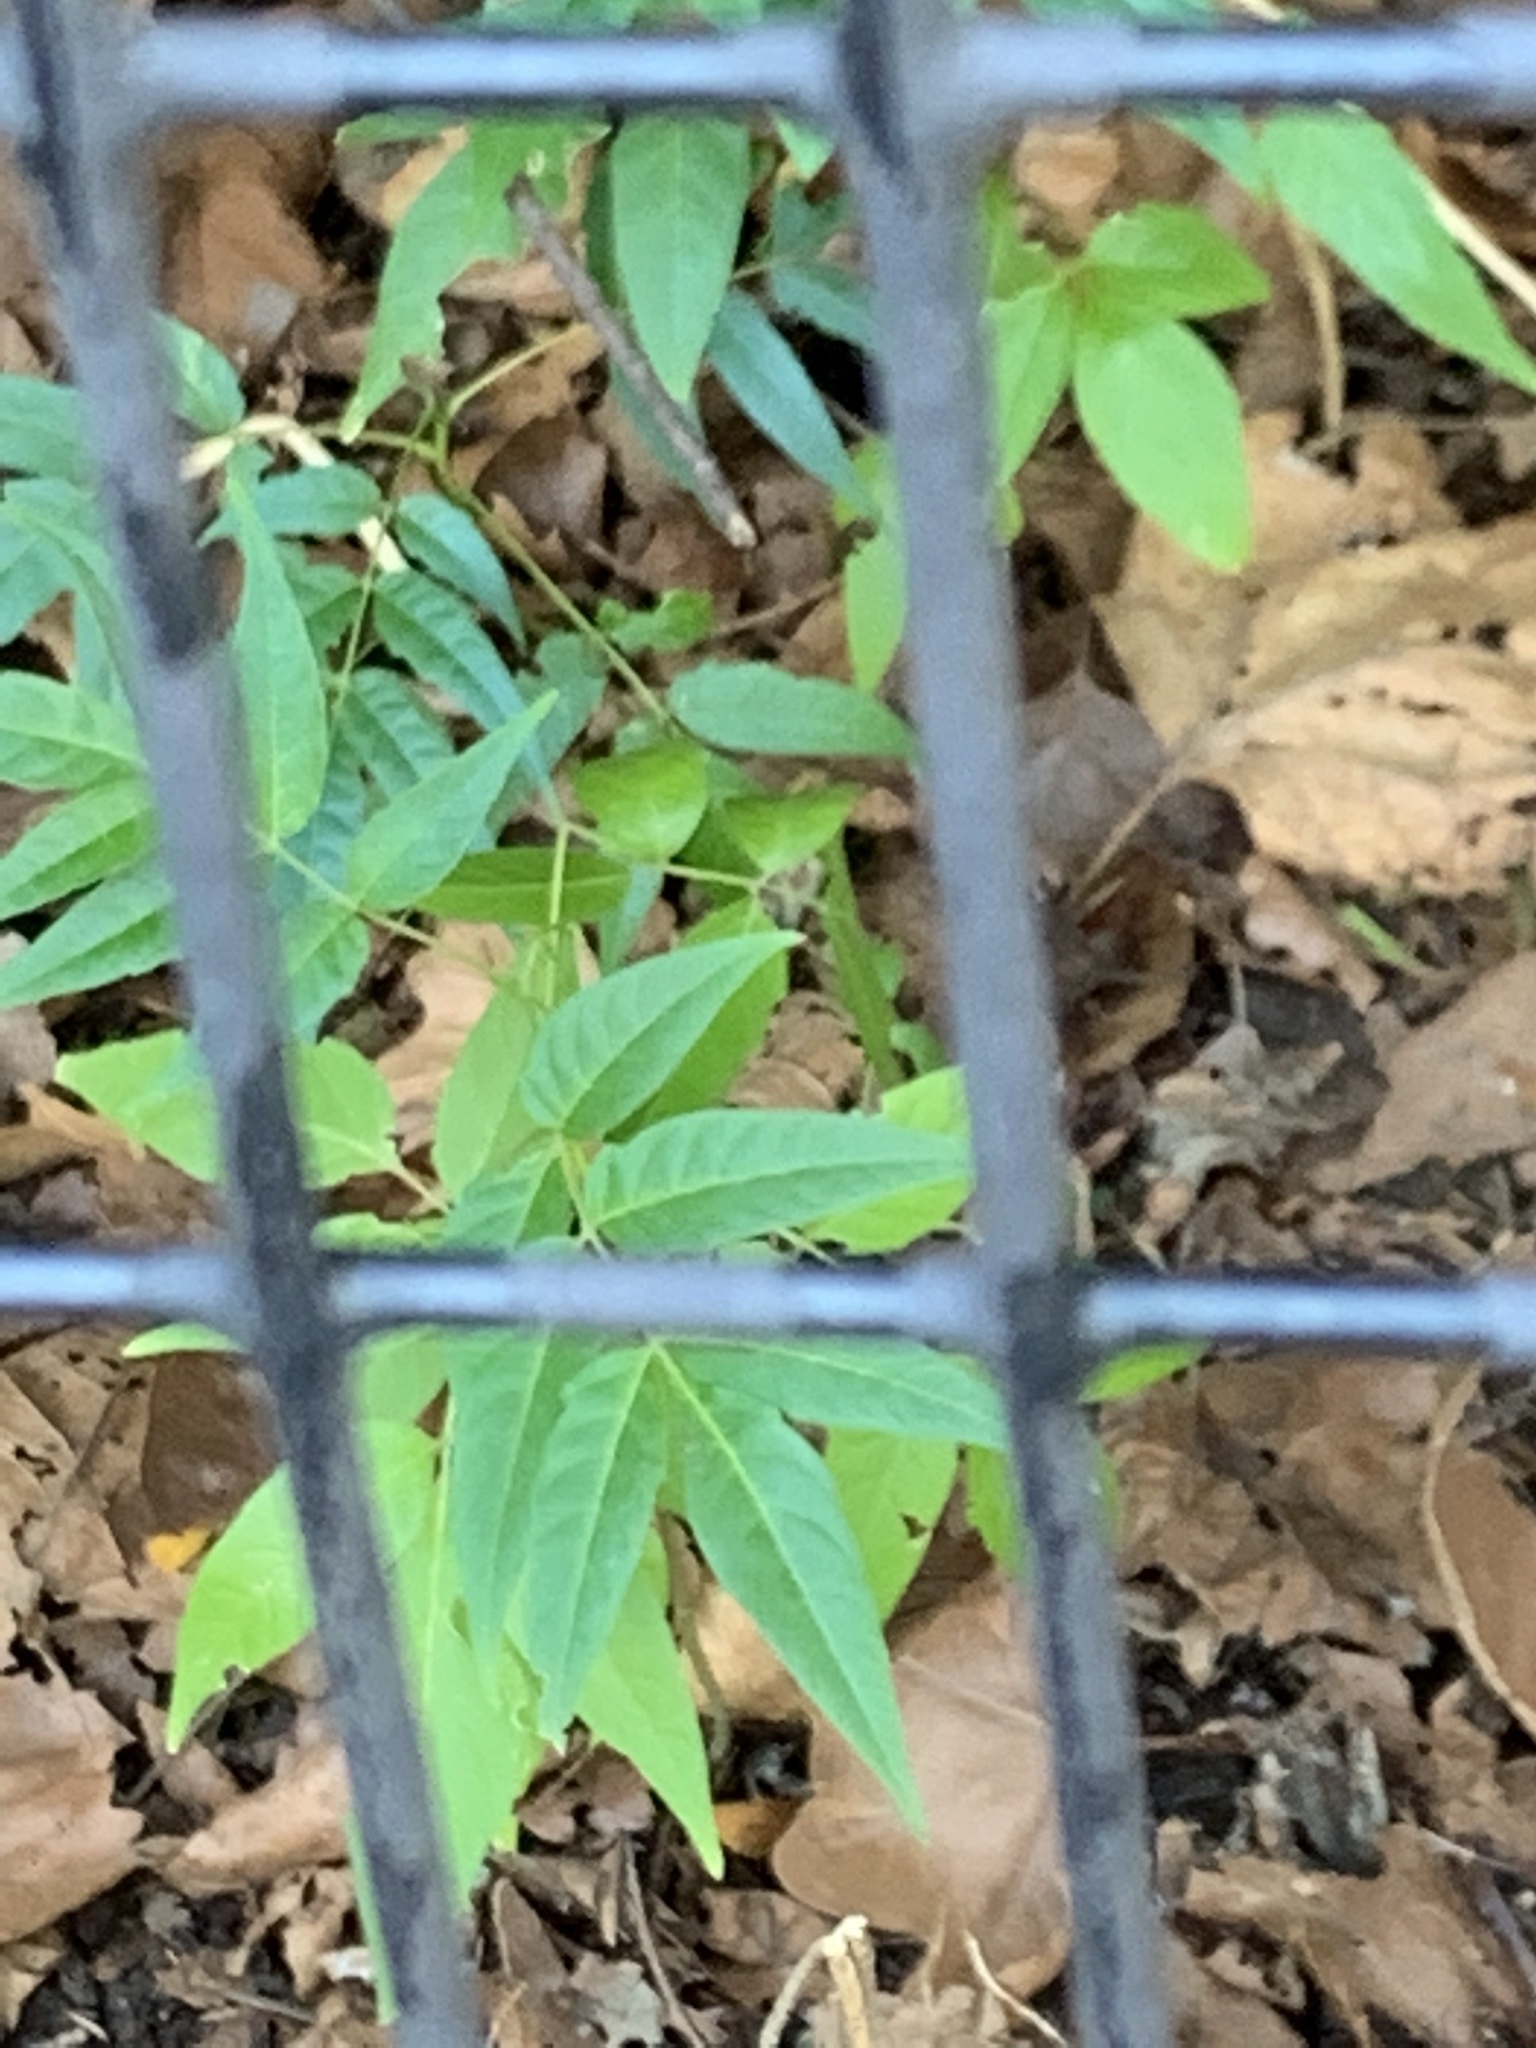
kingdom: Plantae
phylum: Tracheophyta
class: Magnoliopsida
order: Sapindales
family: Simaroubaceae
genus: Ailanthus
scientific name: Ailanthus altissima
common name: Tree-of-heaven
